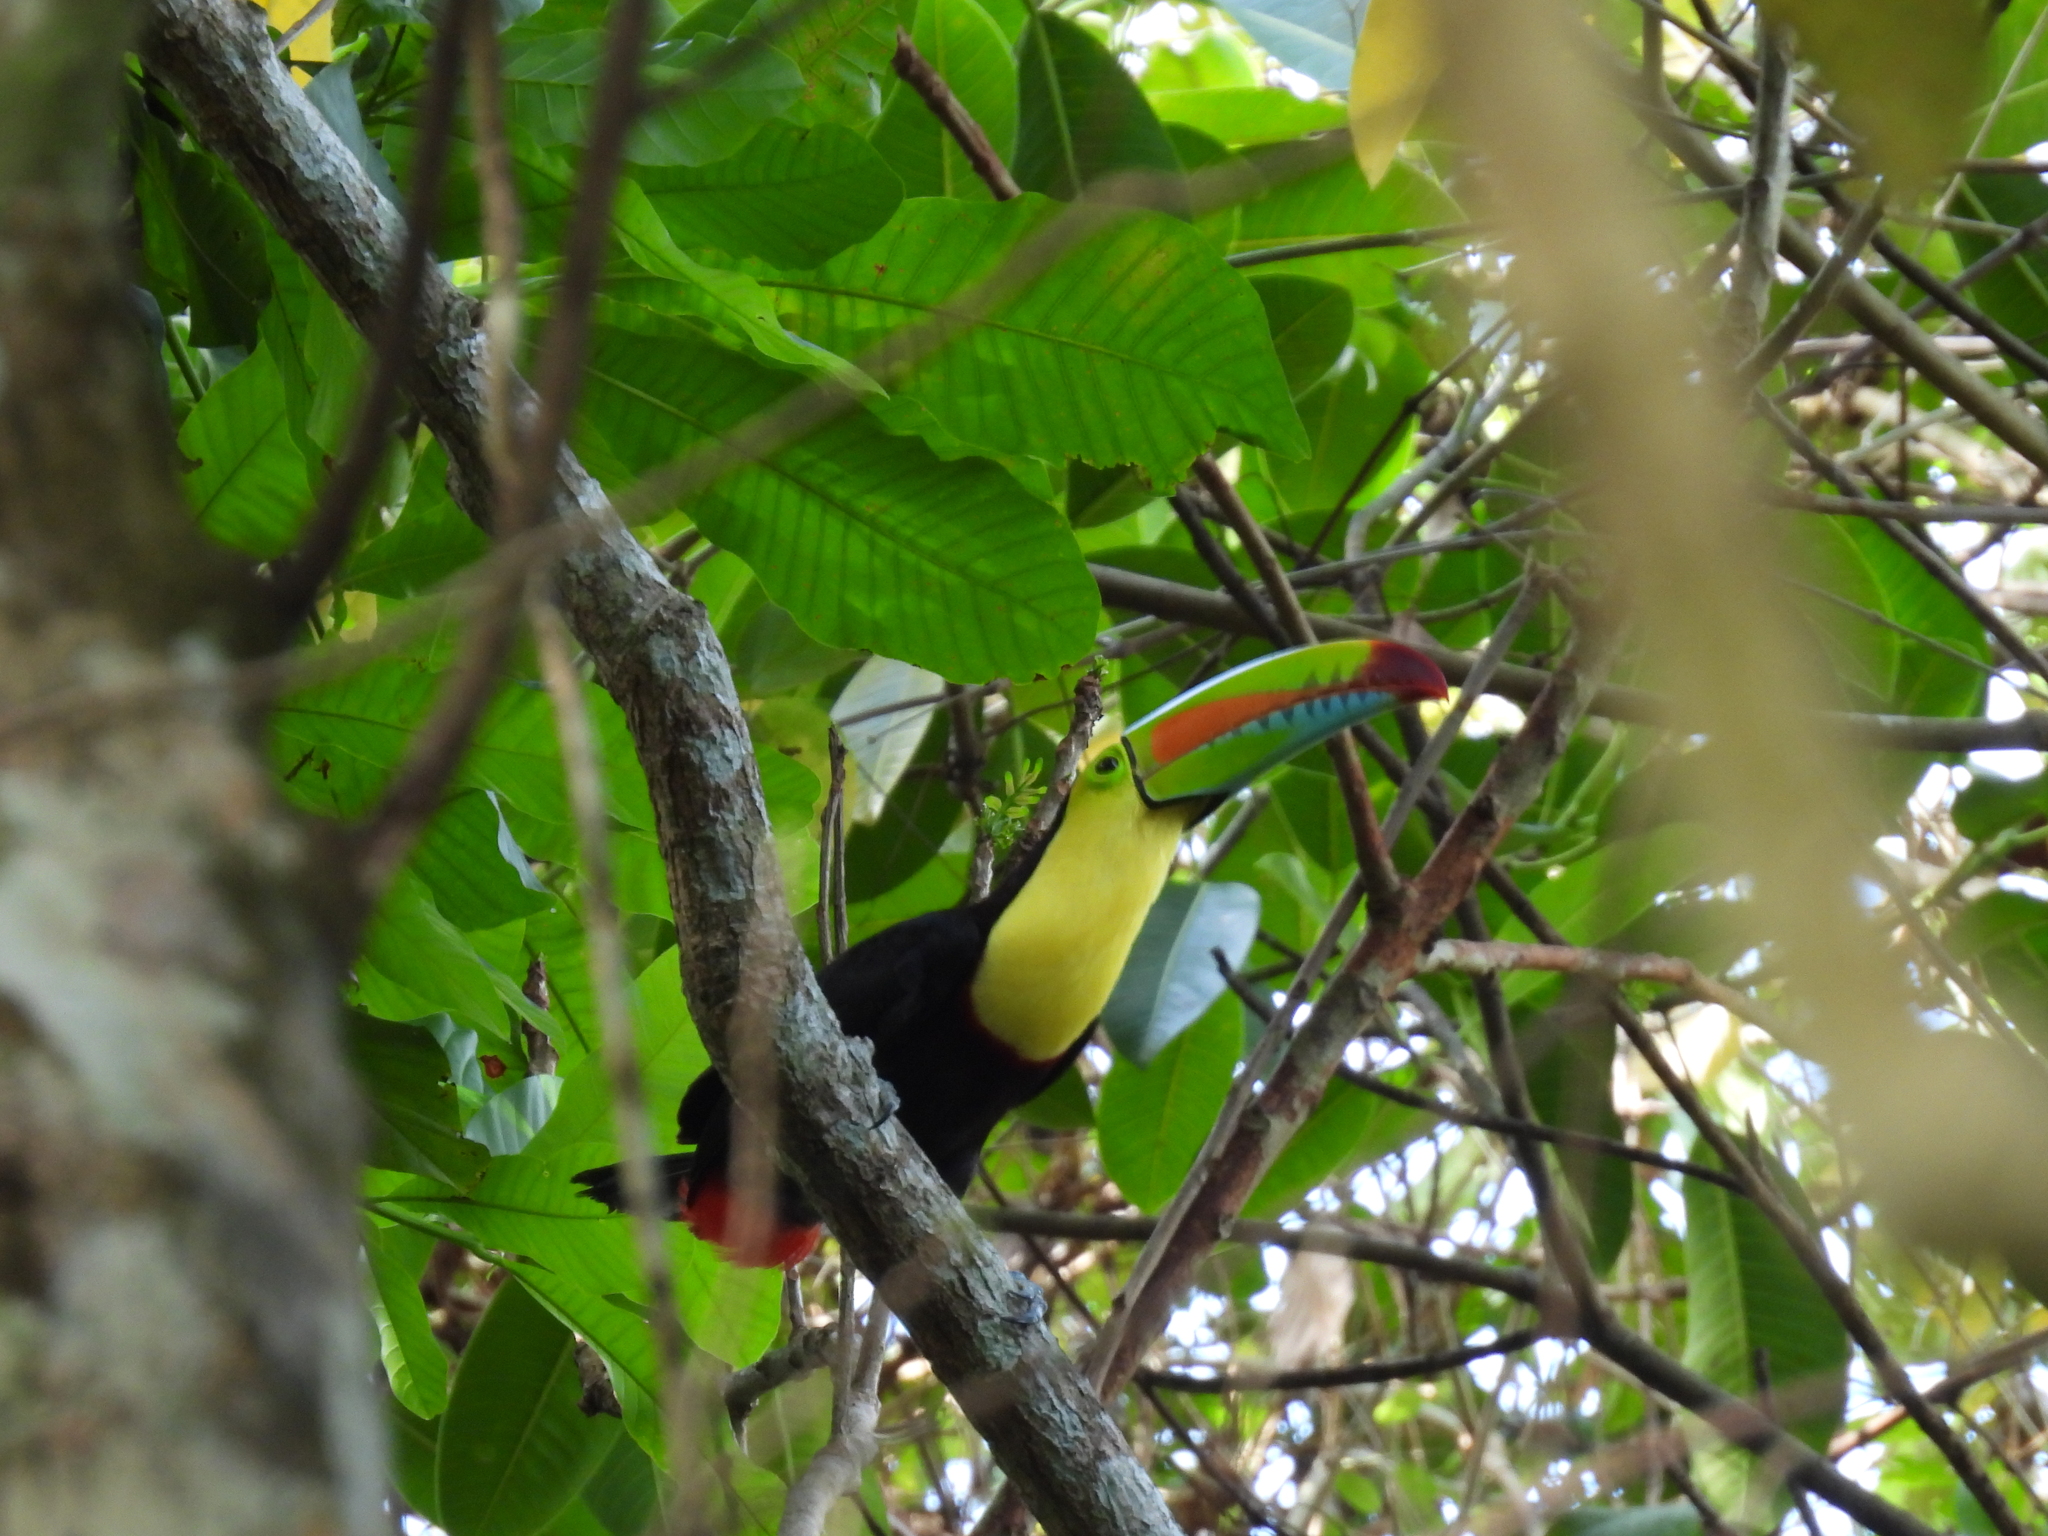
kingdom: Animalia
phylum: Chordata
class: Aves
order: Piciformes
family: Ramphastidae
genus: Ramphastos
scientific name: Ramphastos sulfuratus
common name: Keel-billed toucan
